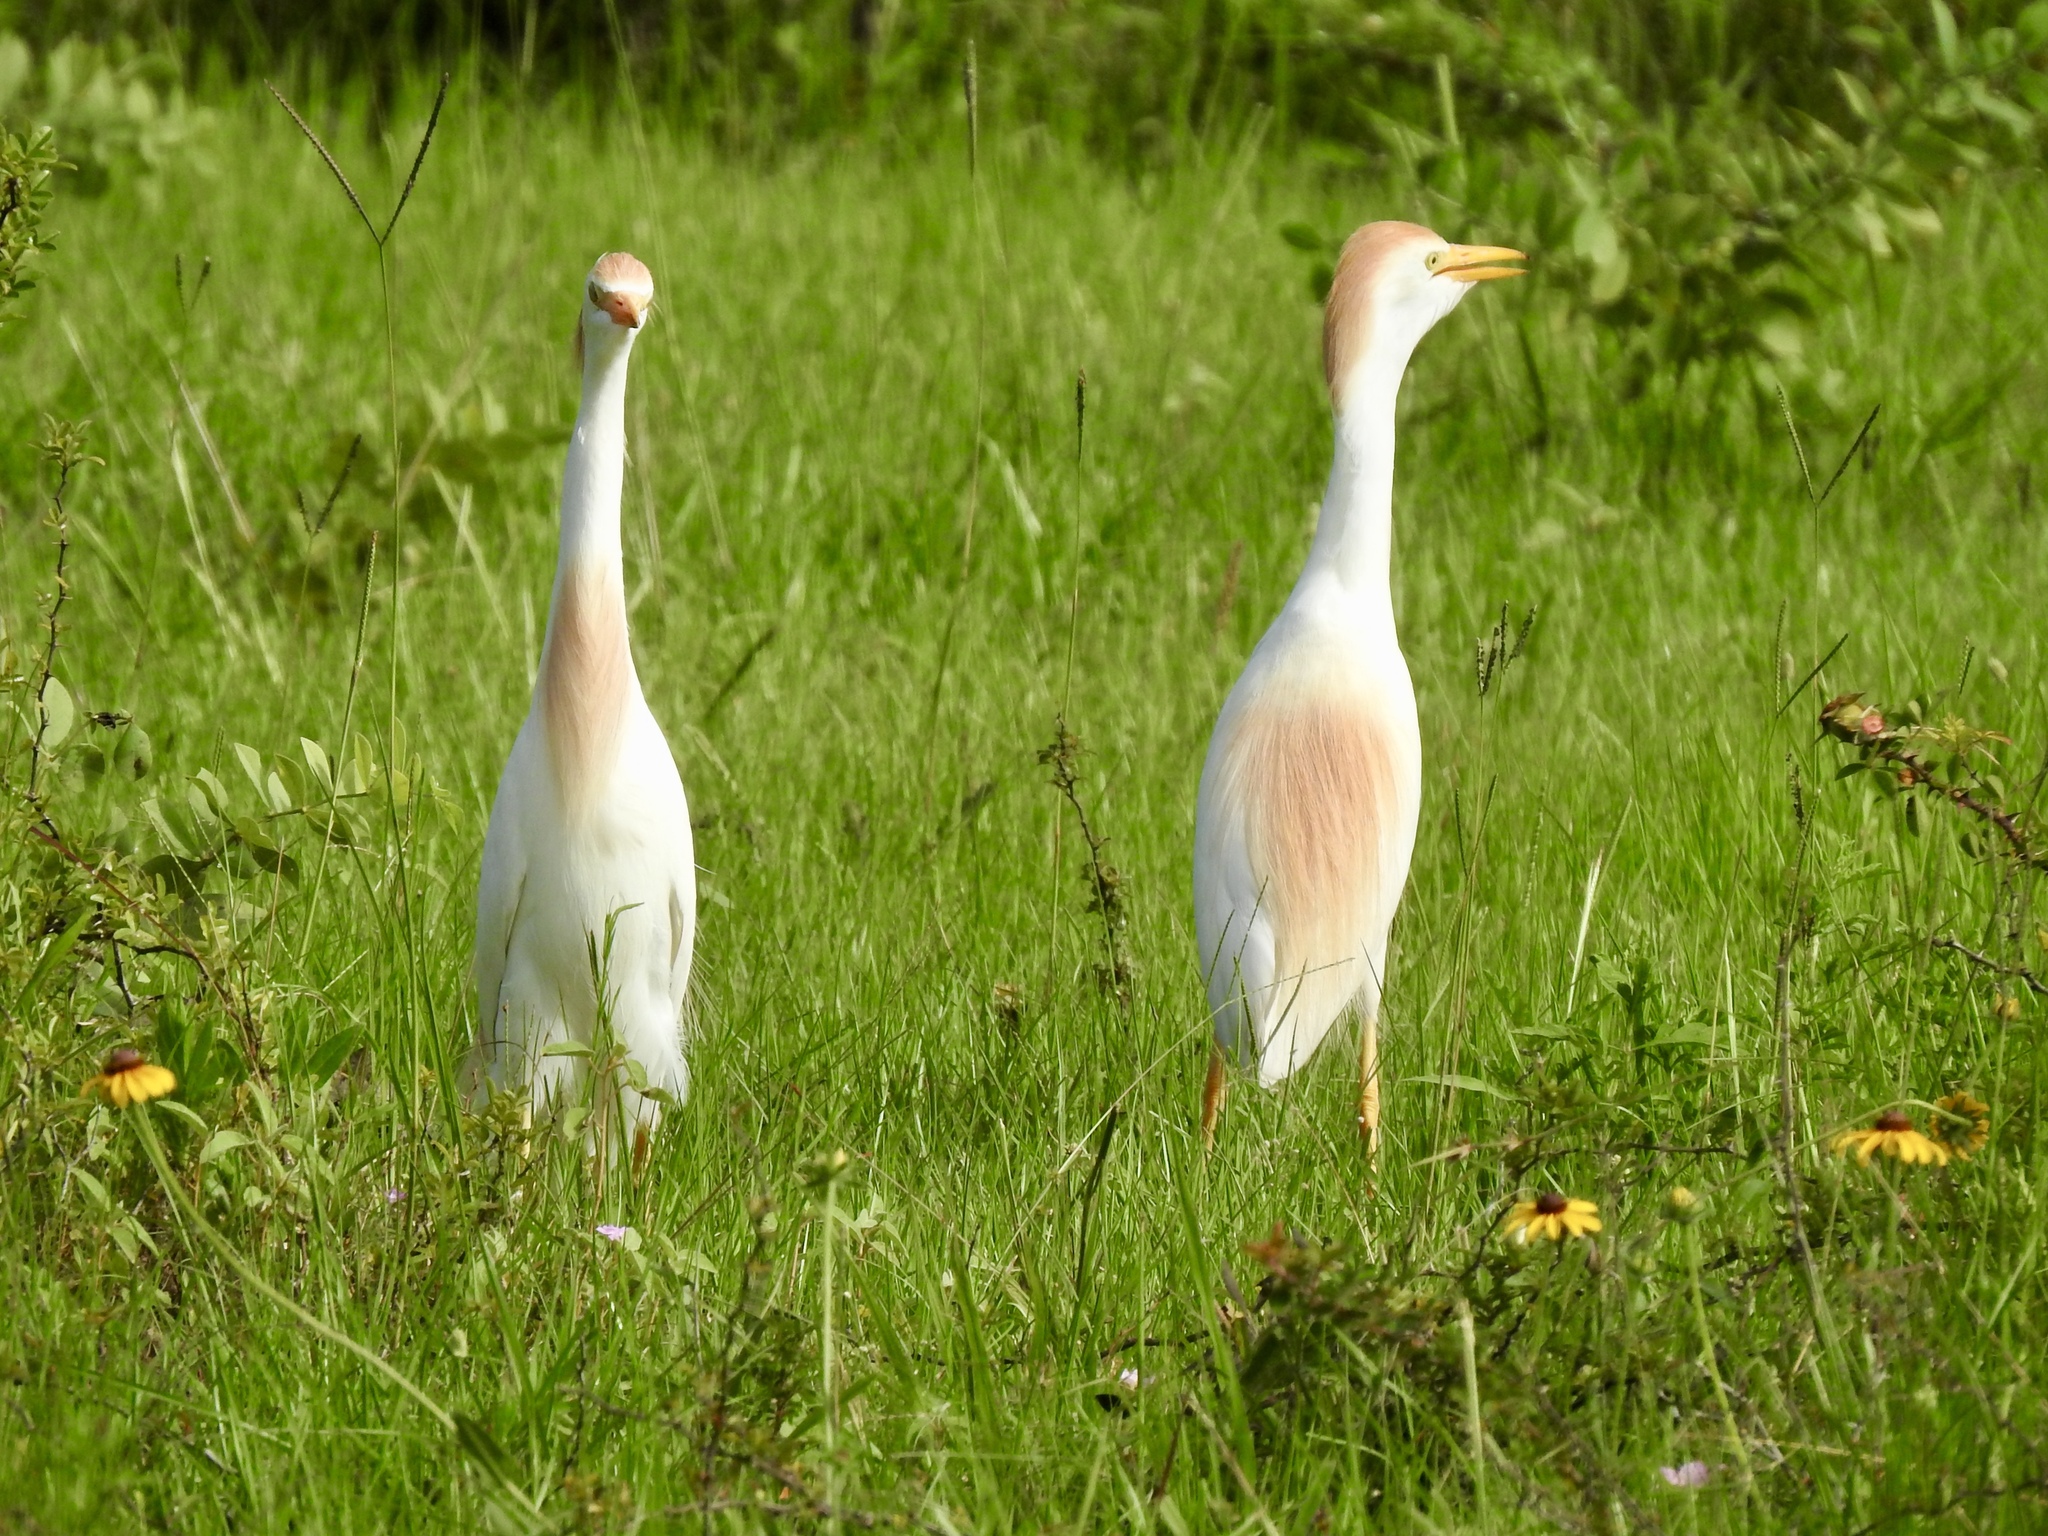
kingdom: Animalia
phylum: Chordata
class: Aves
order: Pelecaniformes
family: Ardeidae
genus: Bubulcus
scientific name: Bubulcus ibis
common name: Cattle egret
